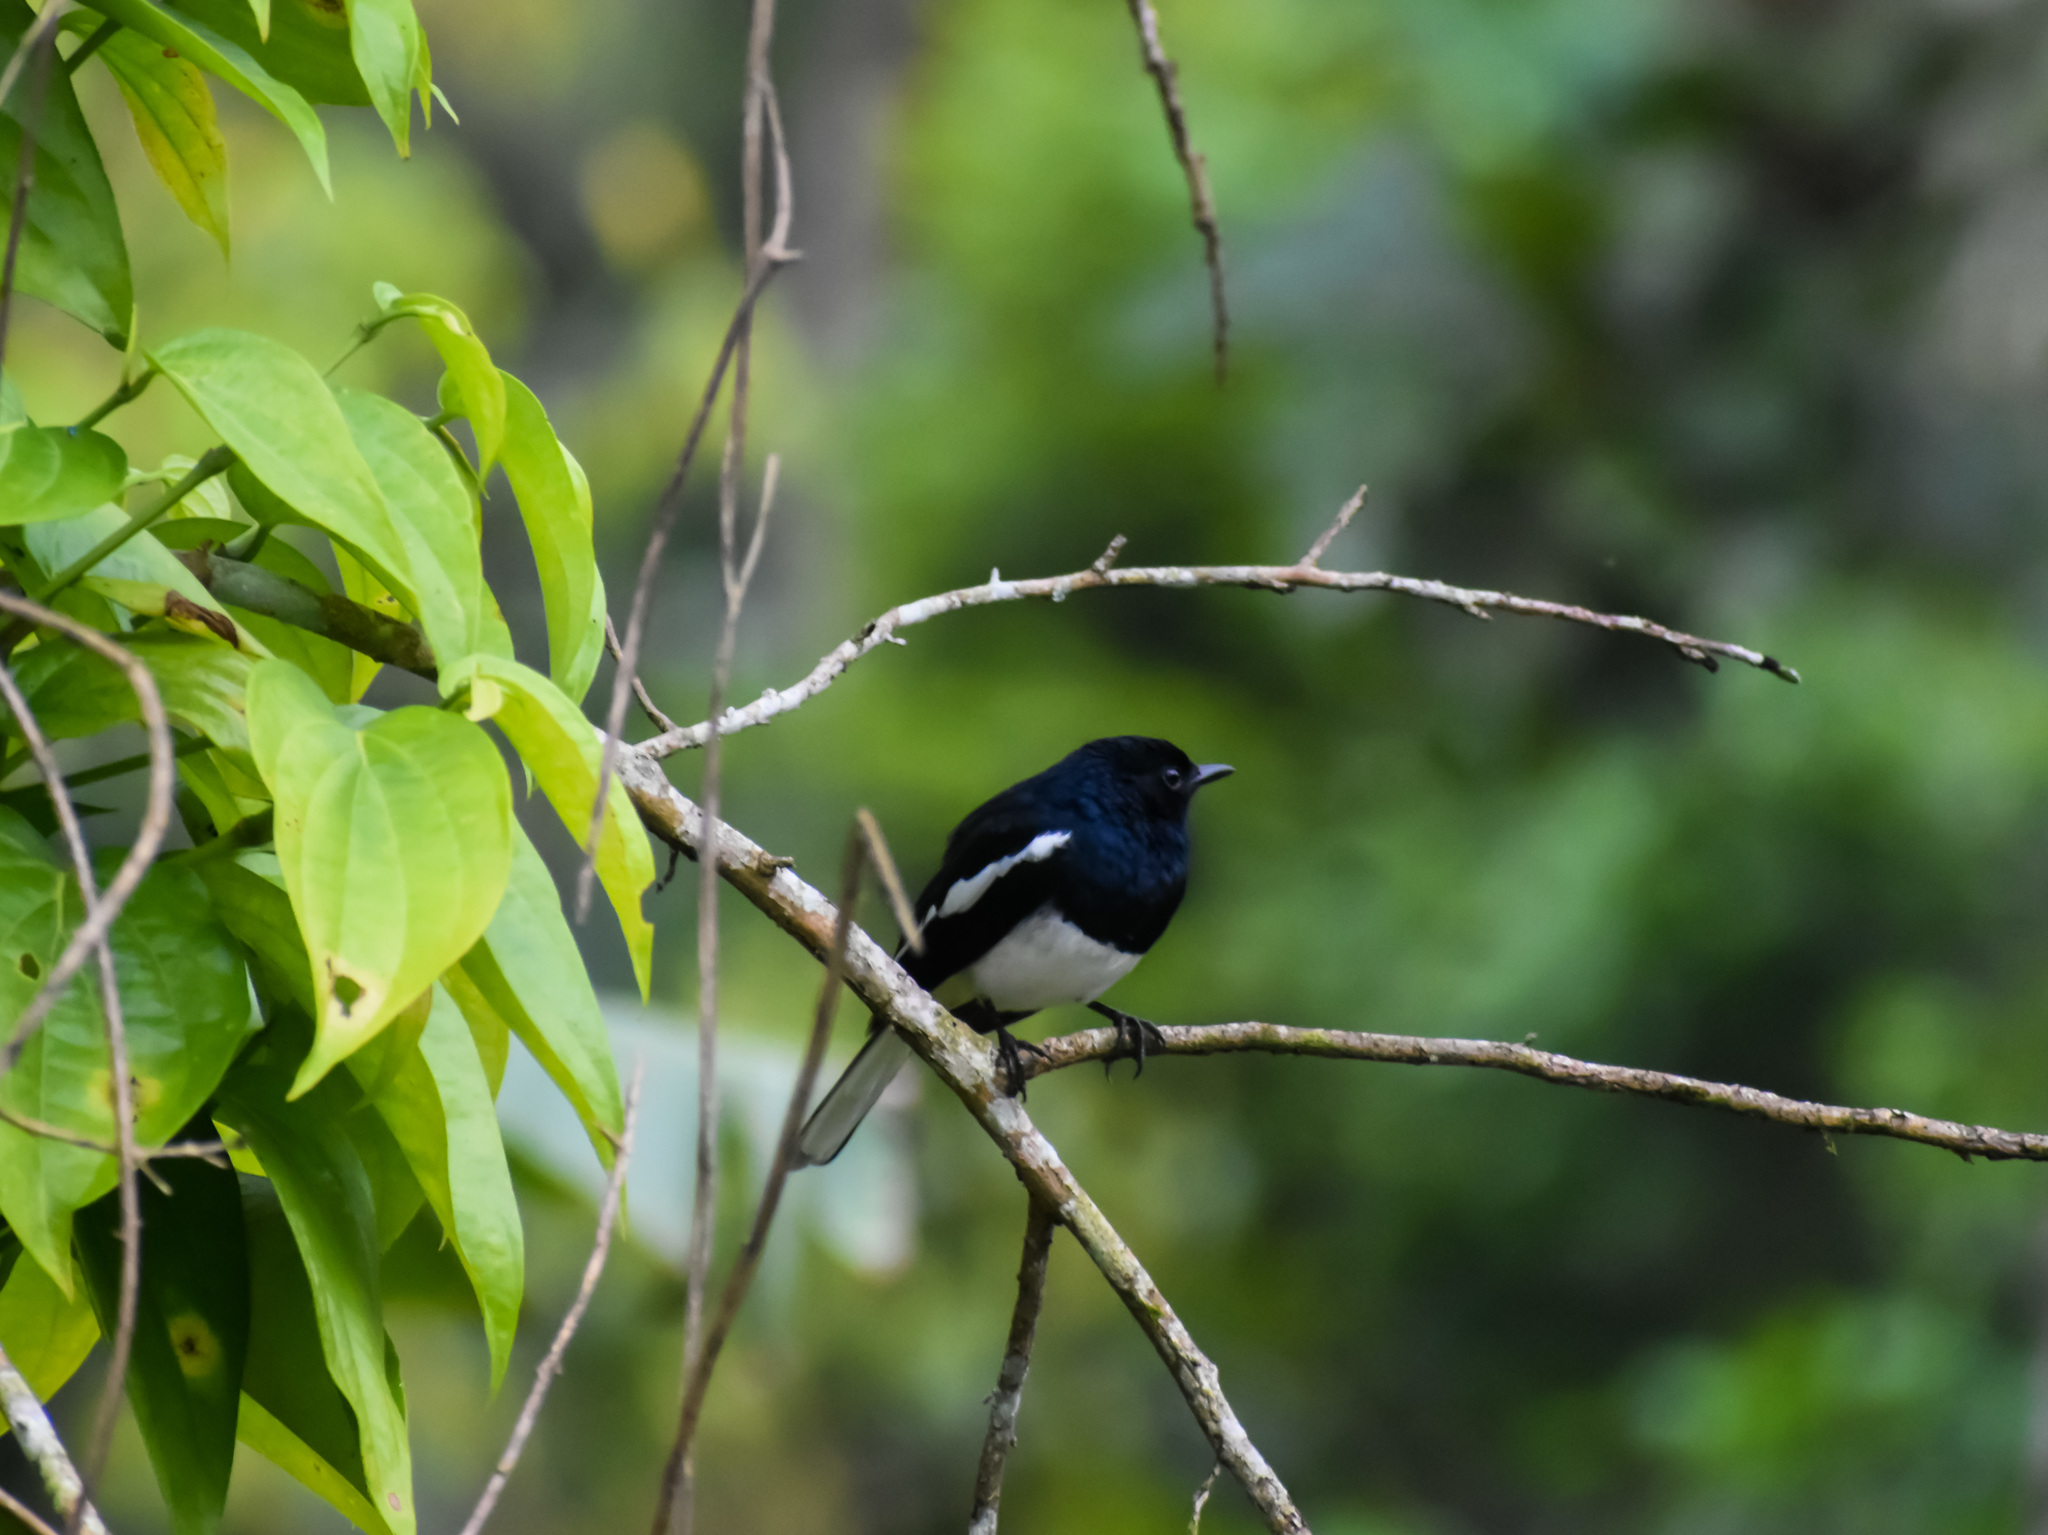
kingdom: Animalia
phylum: Chordata
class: Aves
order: Passeriformes
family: Muscicapidae
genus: Copsychus
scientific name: Copsychus saularis
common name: Oriental magpie-robin
